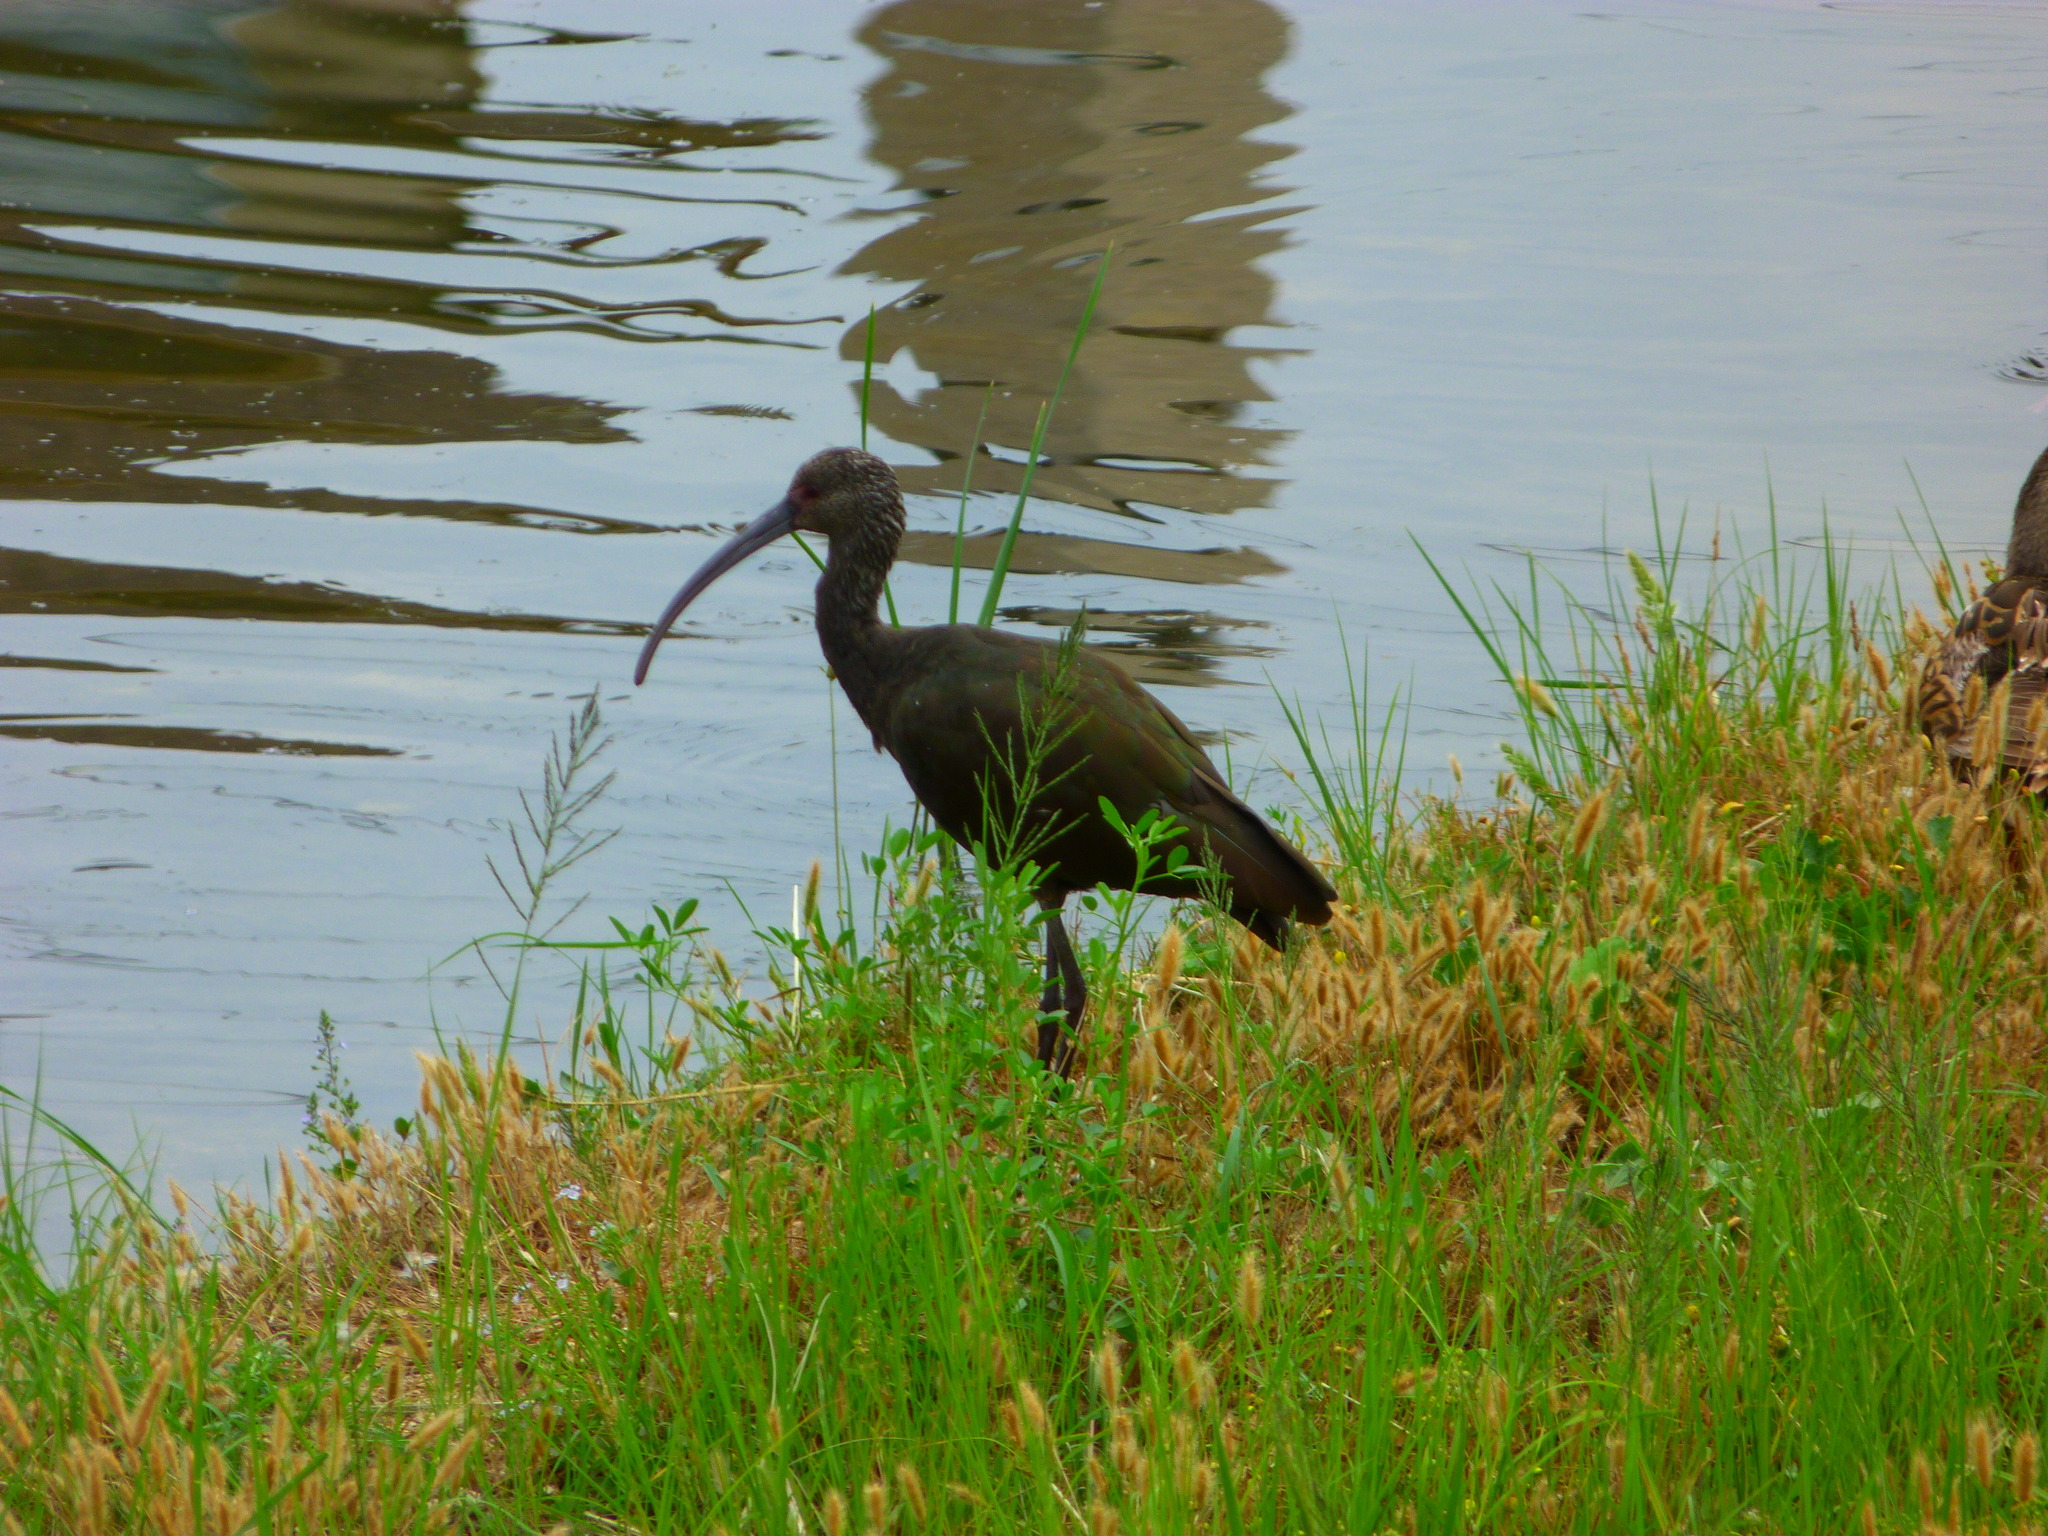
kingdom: Animalia
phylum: Chordata
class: Aves
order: Pelecaniformes
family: Threskiornithidae
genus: Plegadis
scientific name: Plegadis chihi
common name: White-faced ibis
